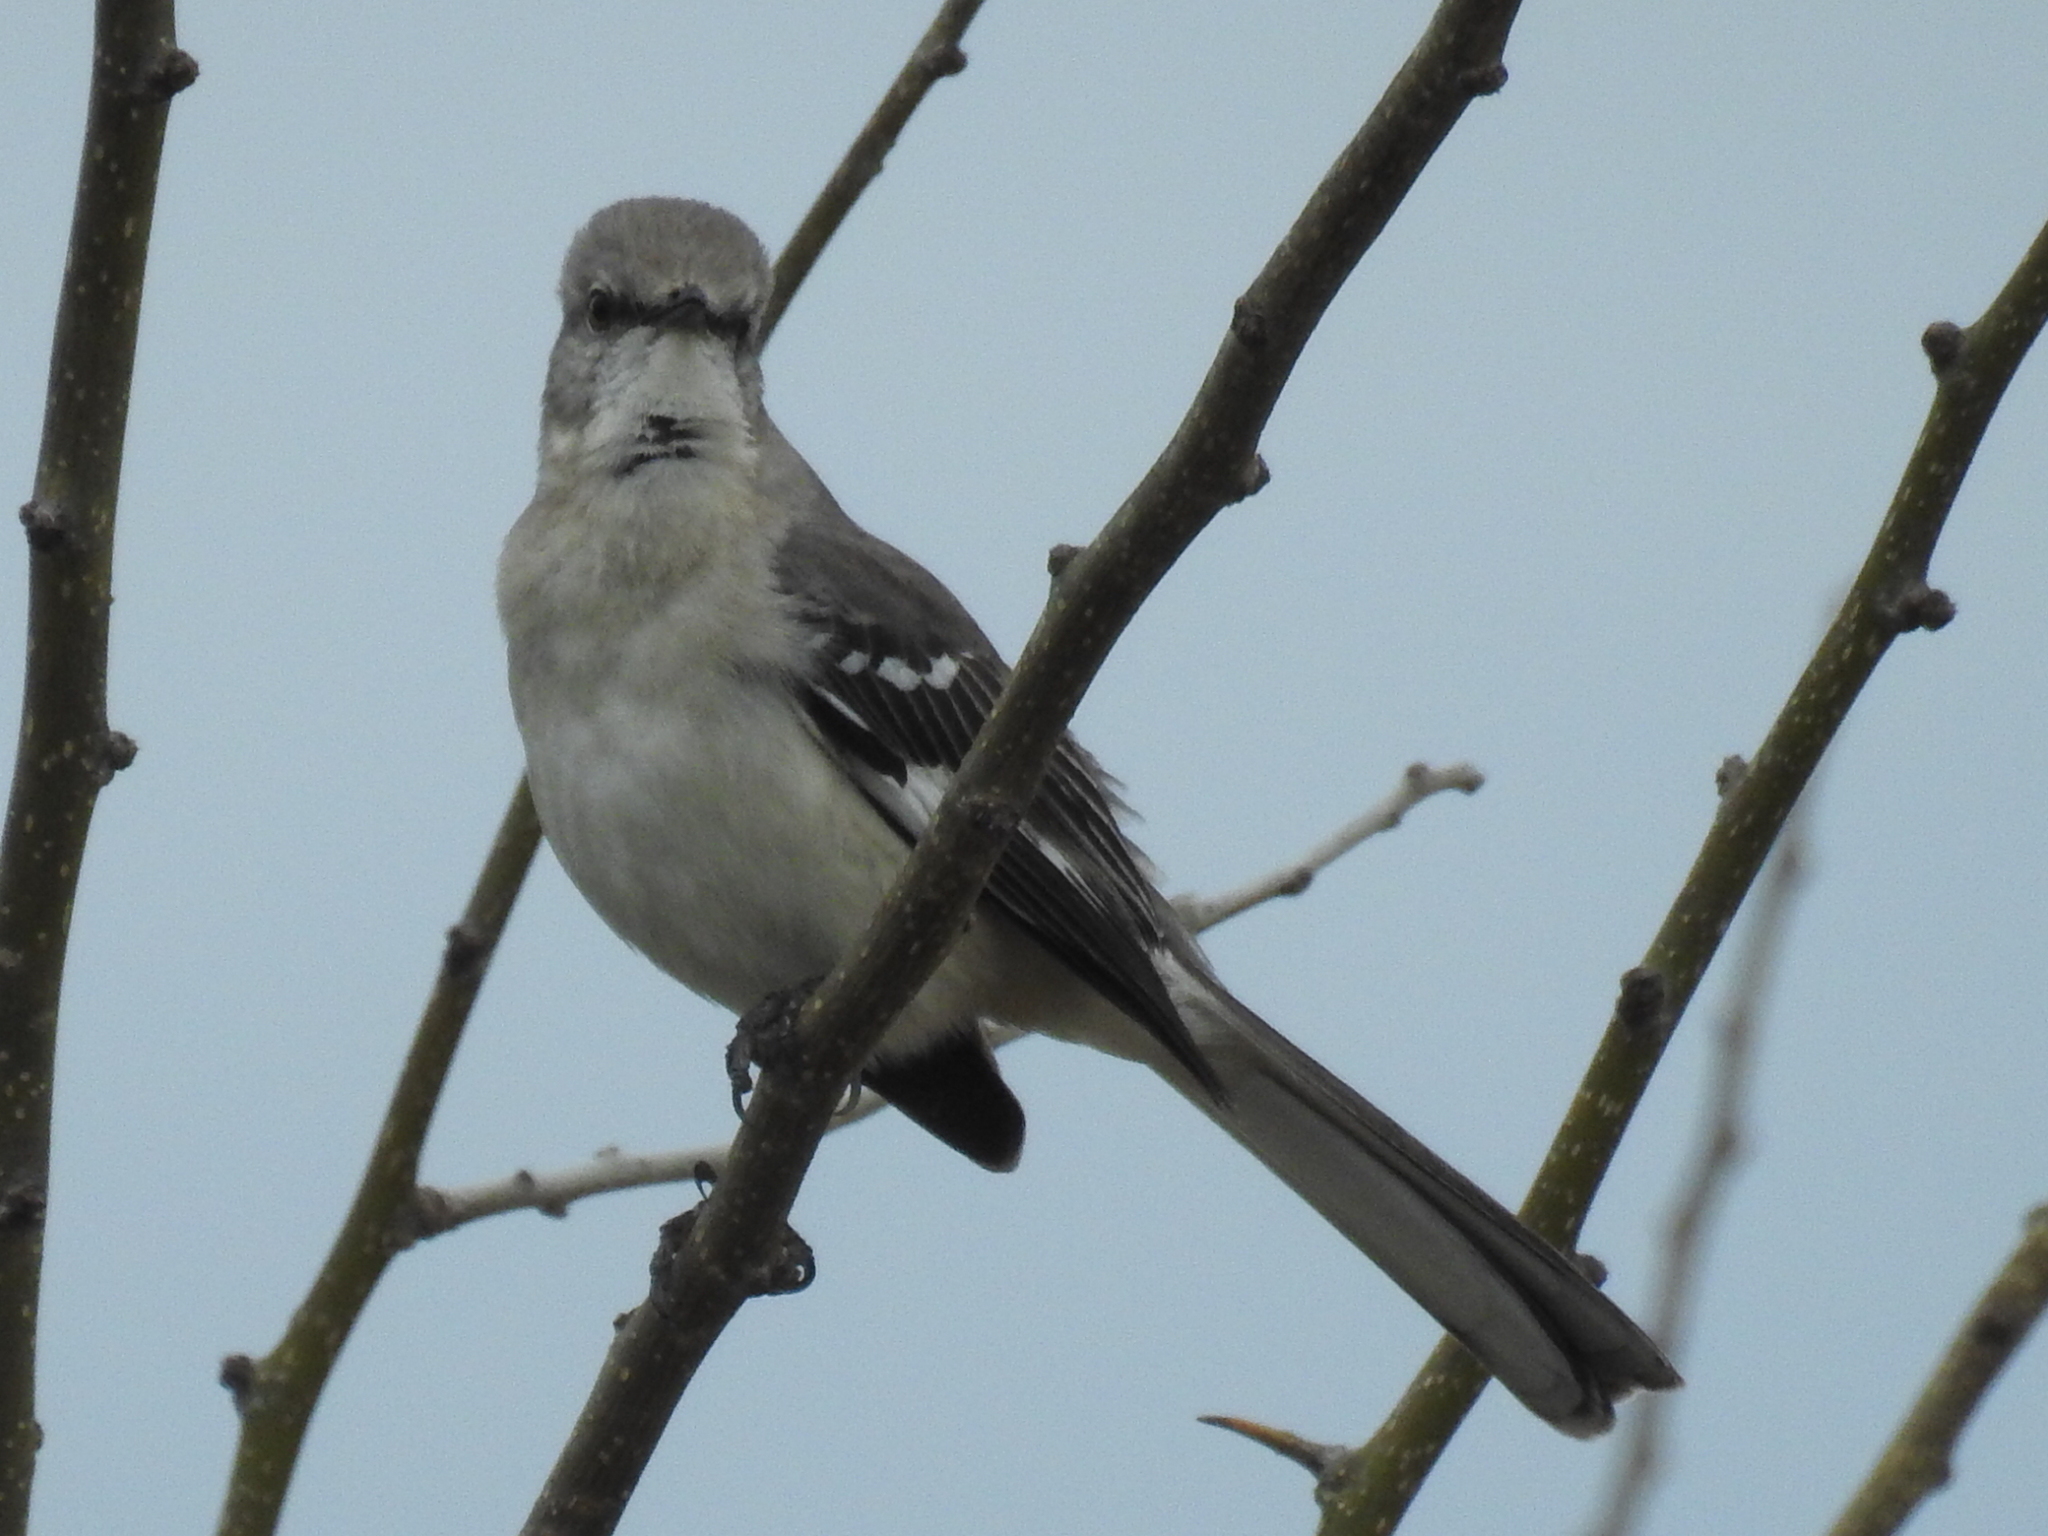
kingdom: Animalia
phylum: Chordata
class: Aves
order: Passeriformes
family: Mimidae
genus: Mimus
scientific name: Mimus polyglottos
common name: Northern mockingbird
